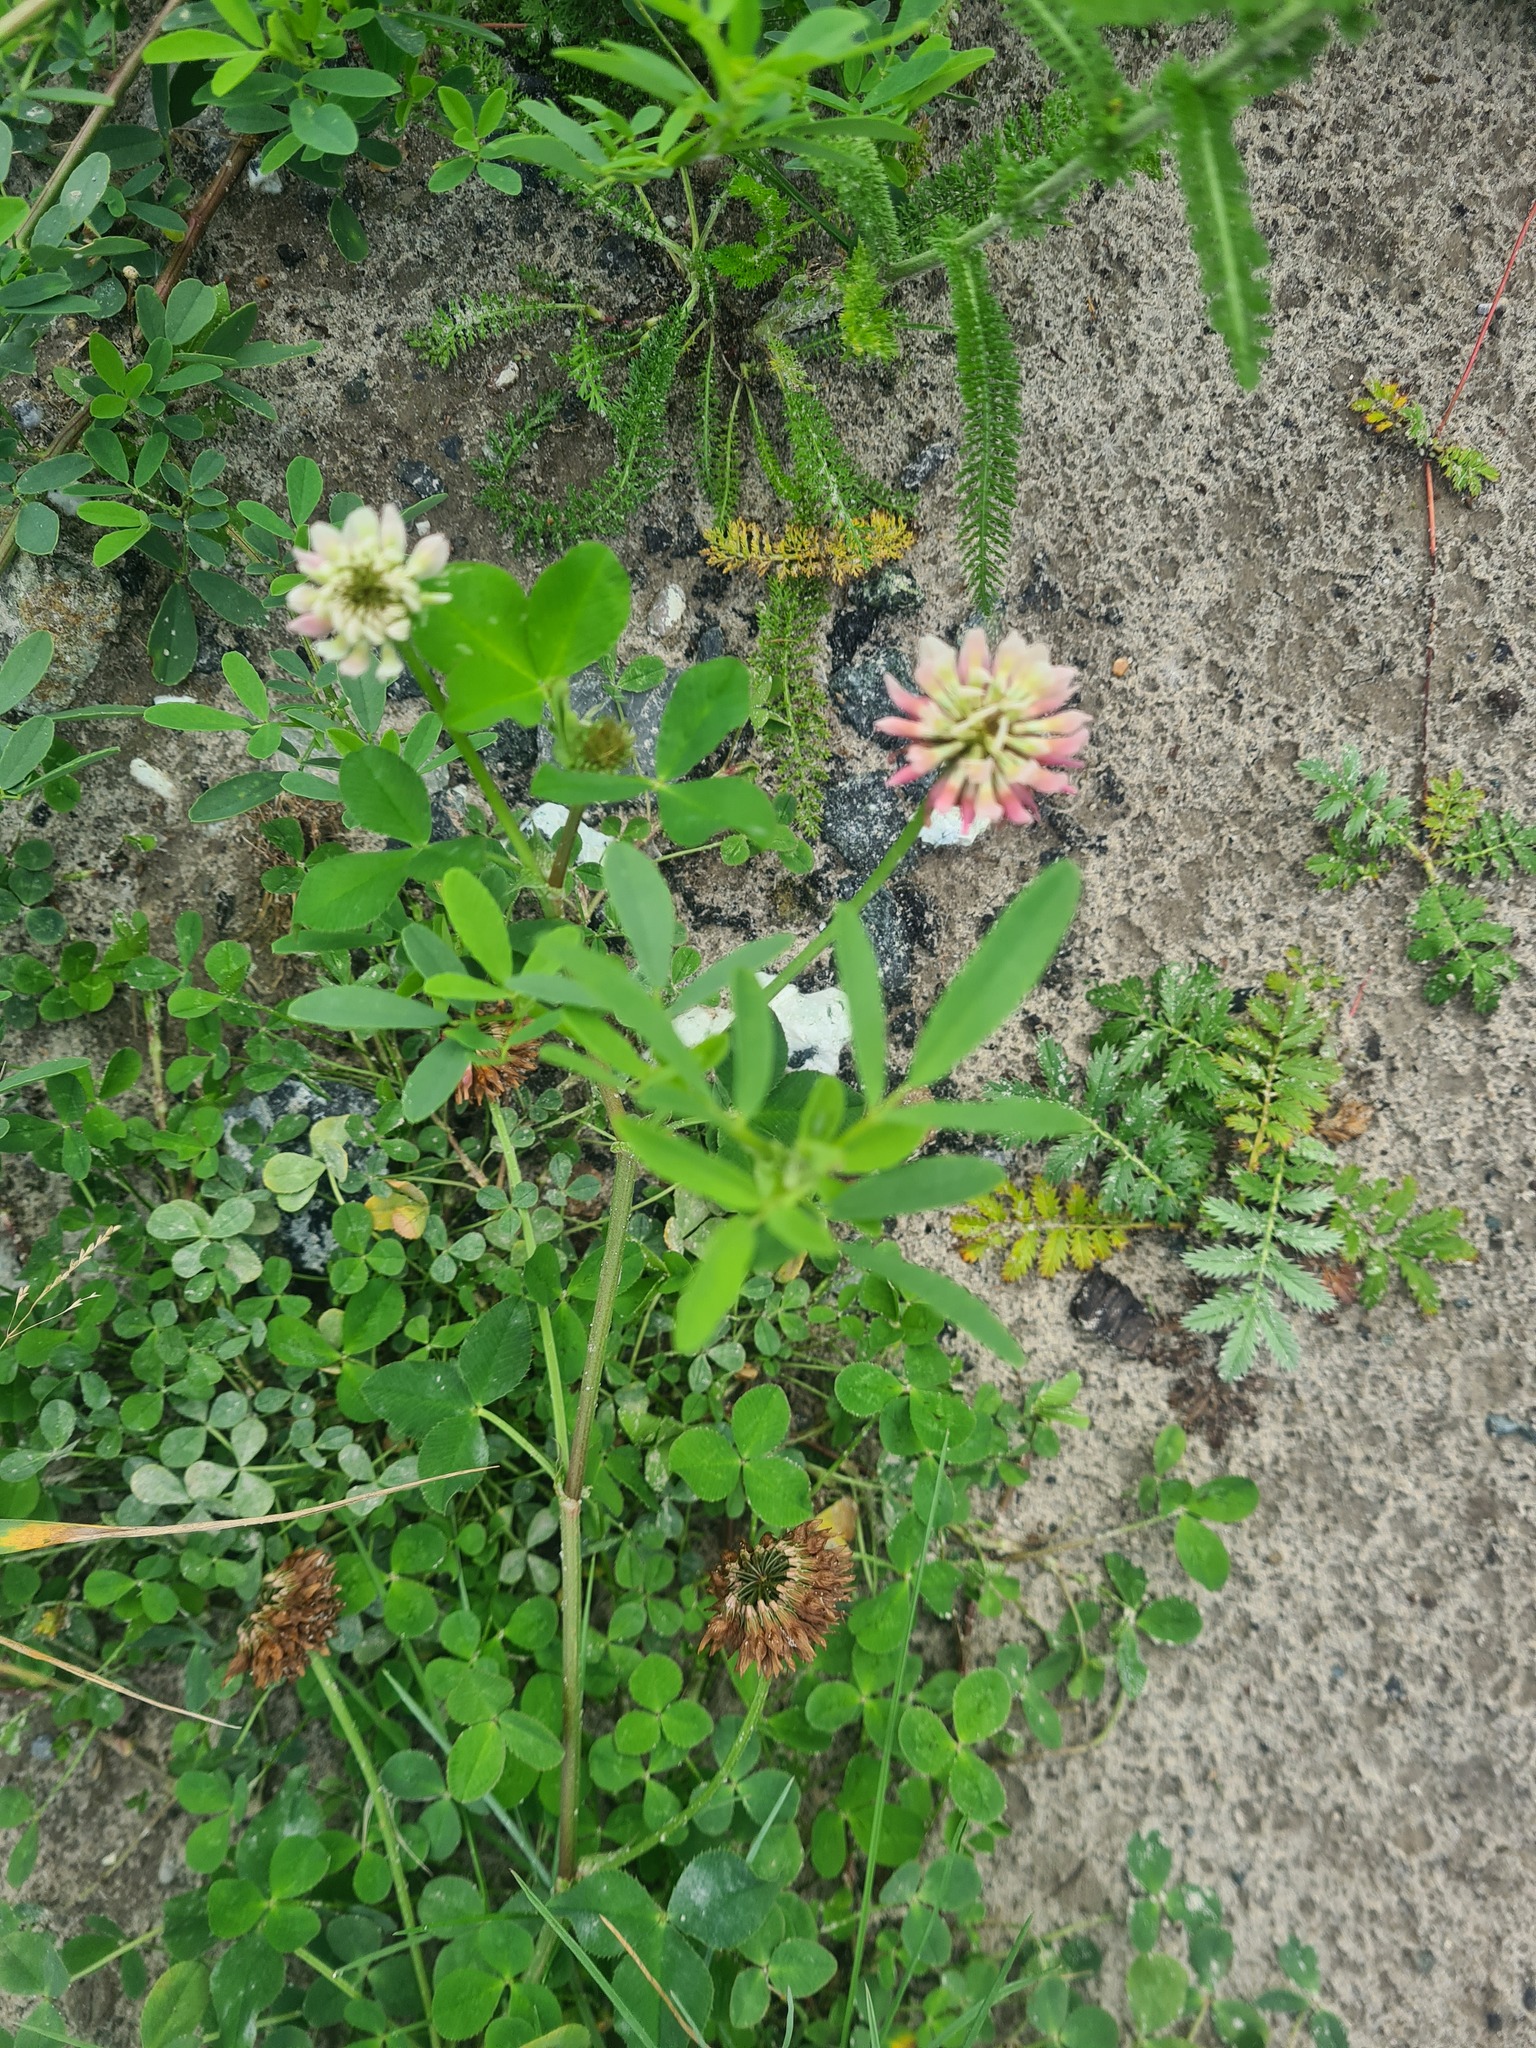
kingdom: Plantae
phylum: Tracheophyta
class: Magnoliopsida
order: Fabales
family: Fabaceae
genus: Trifolium
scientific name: Trifolium hybridum
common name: Alsike clover
